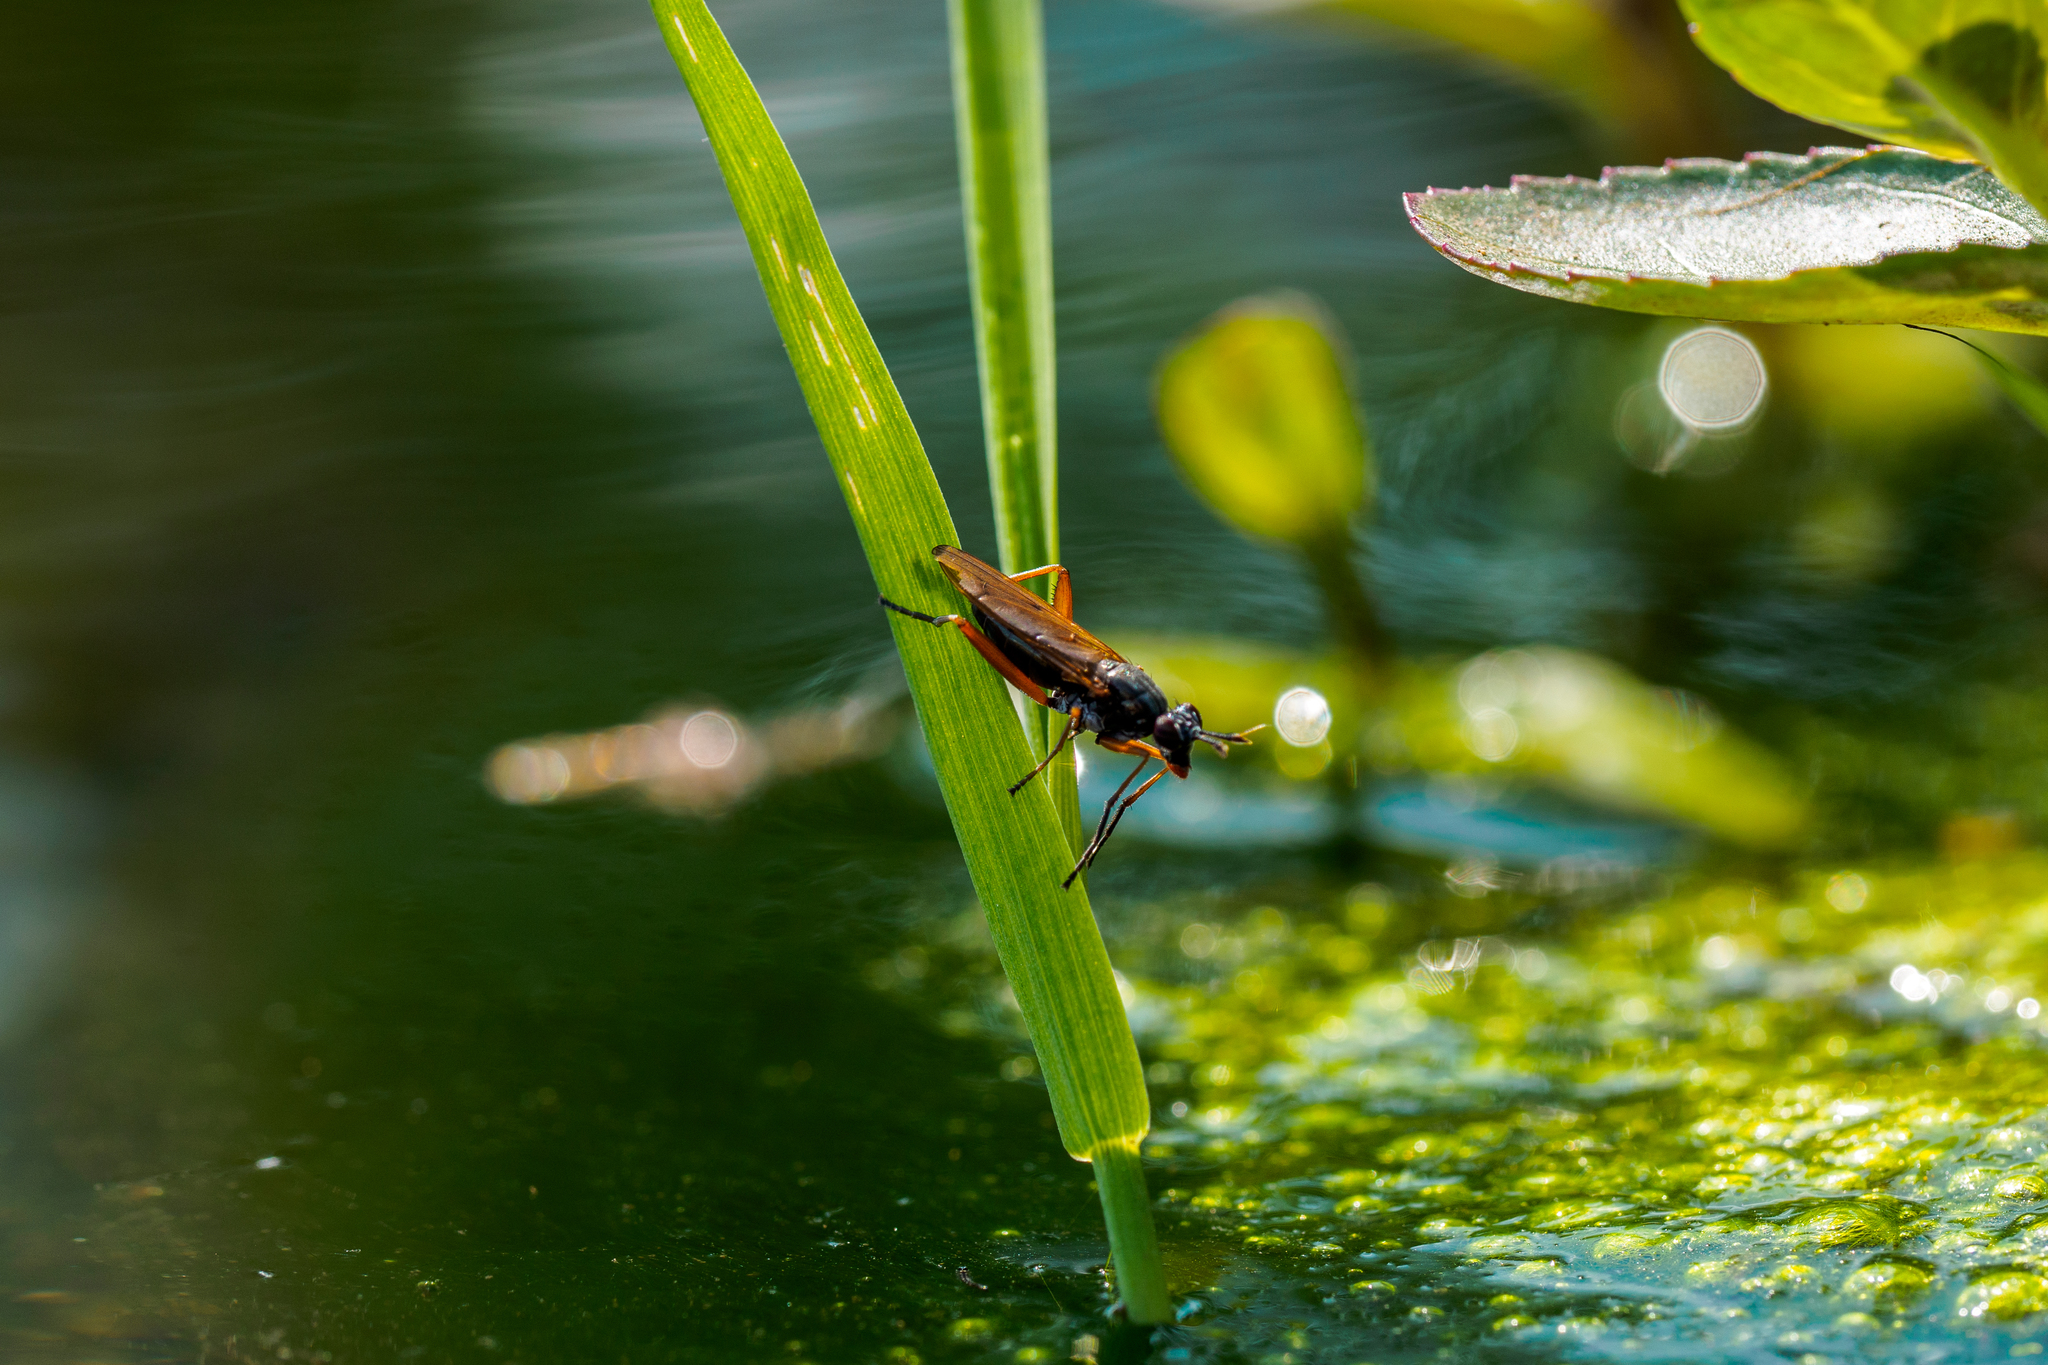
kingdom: Animalia
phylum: Arthropoda
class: Insecta
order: Diptera
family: Sciomyzidae
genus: Sepedon
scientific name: Sepedon sphegea
